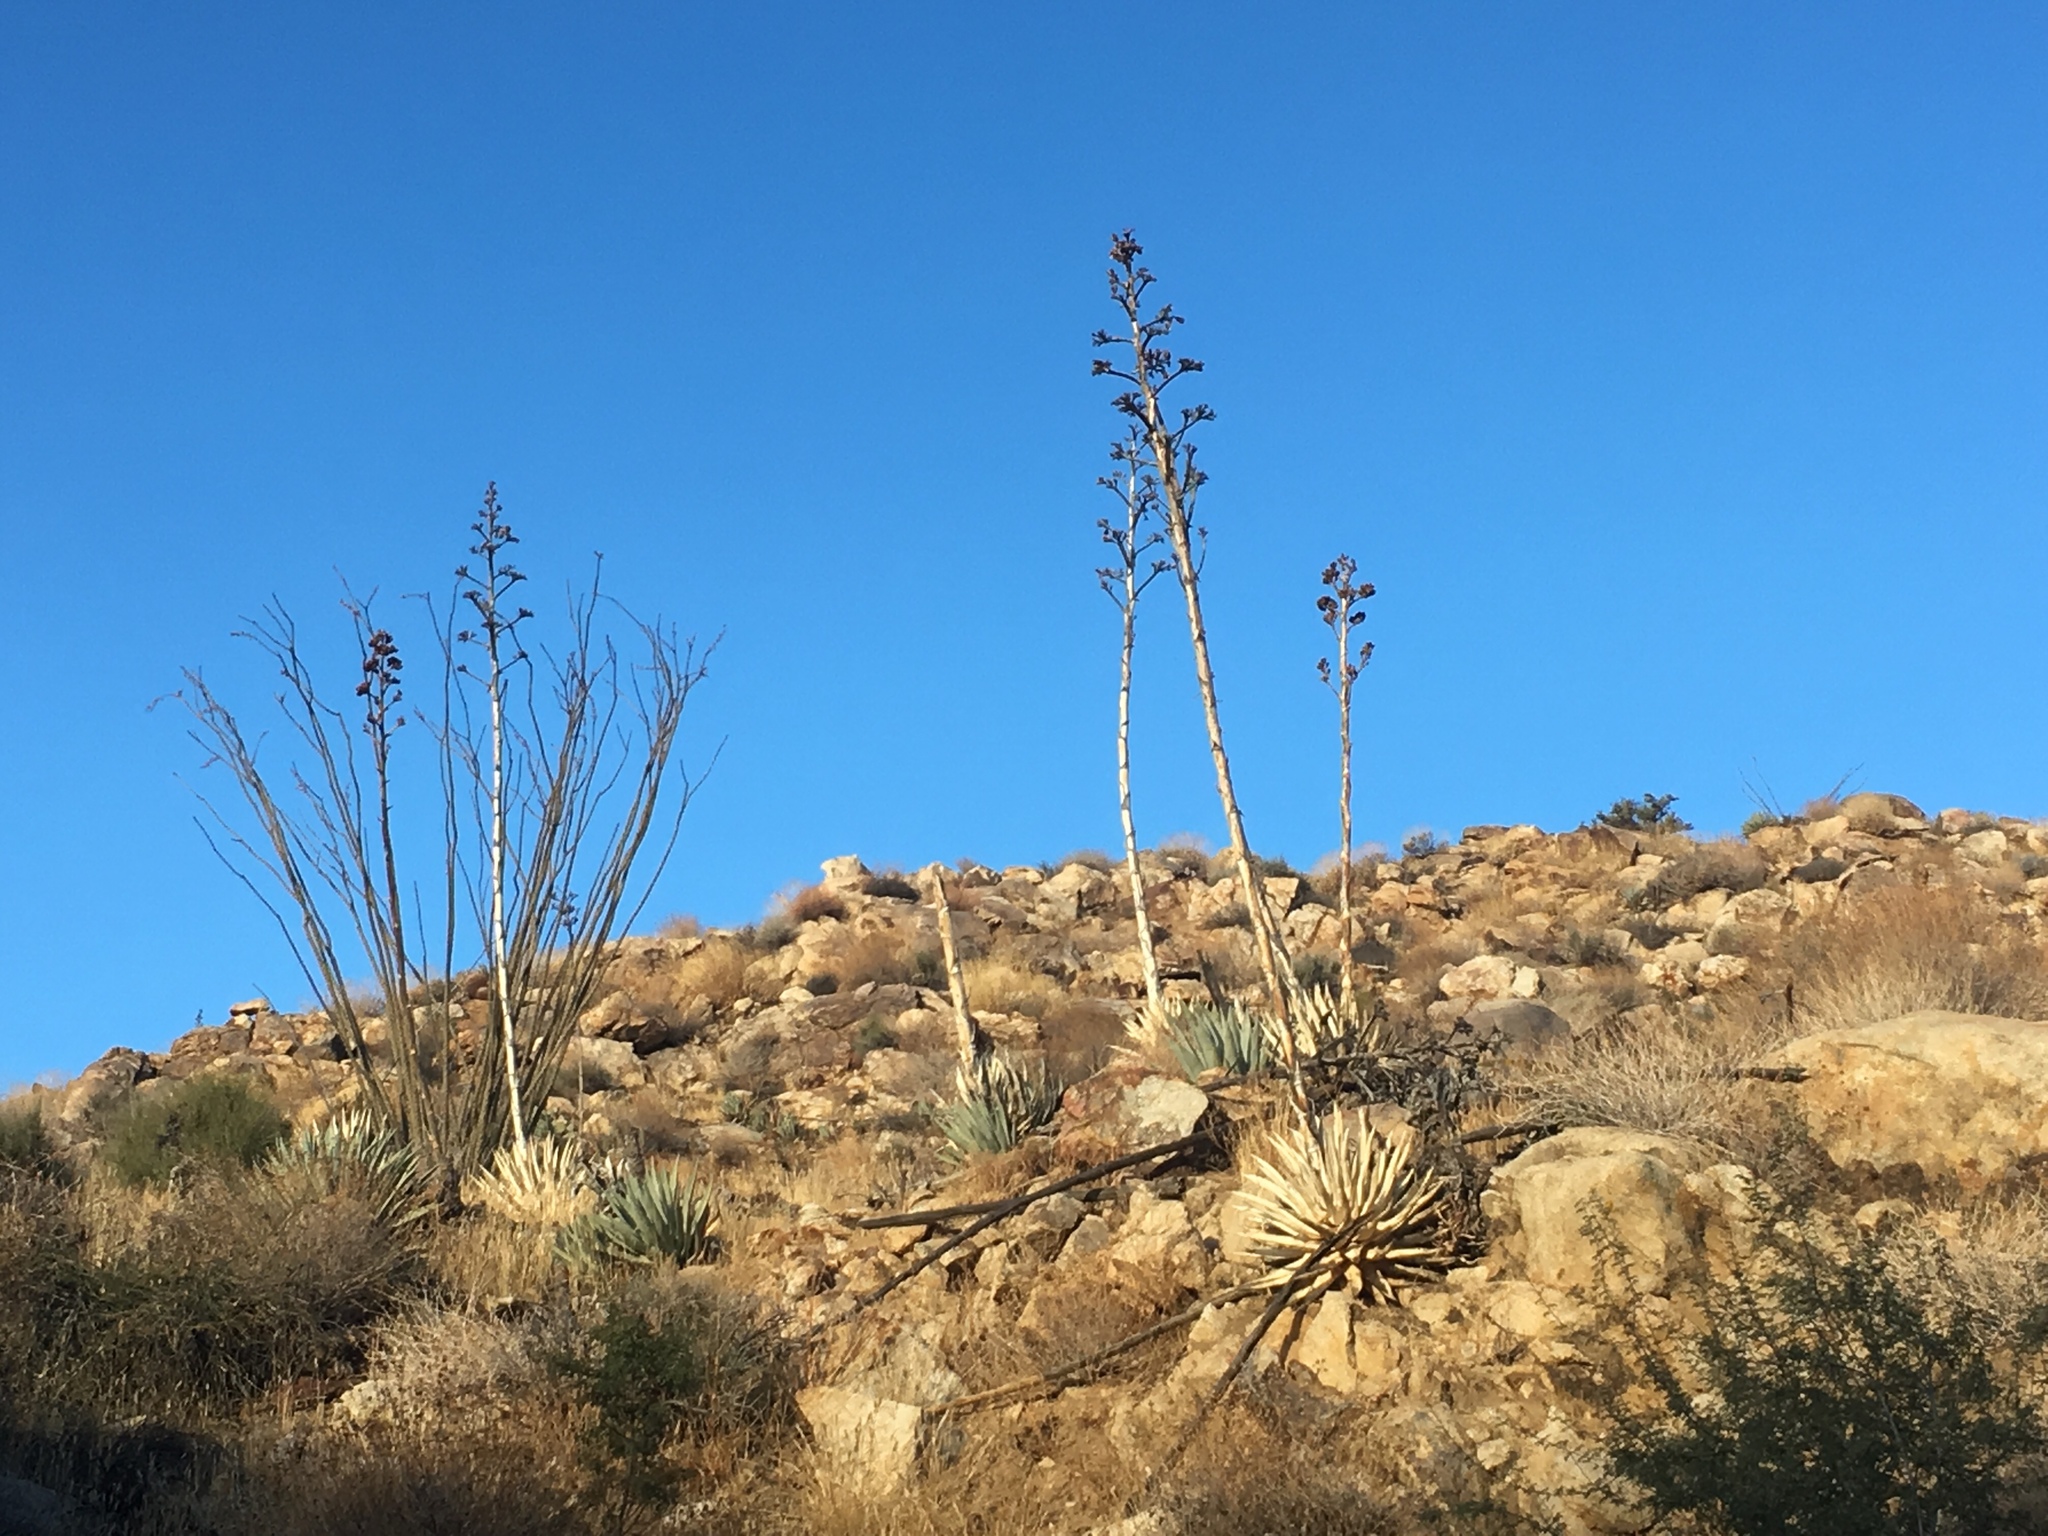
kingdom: Plantae
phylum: Tracheophyta
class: Liliopsida
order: Asparagales
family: Asparagaceae
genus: Agave
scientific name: Agave deserti
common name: Desert agave
